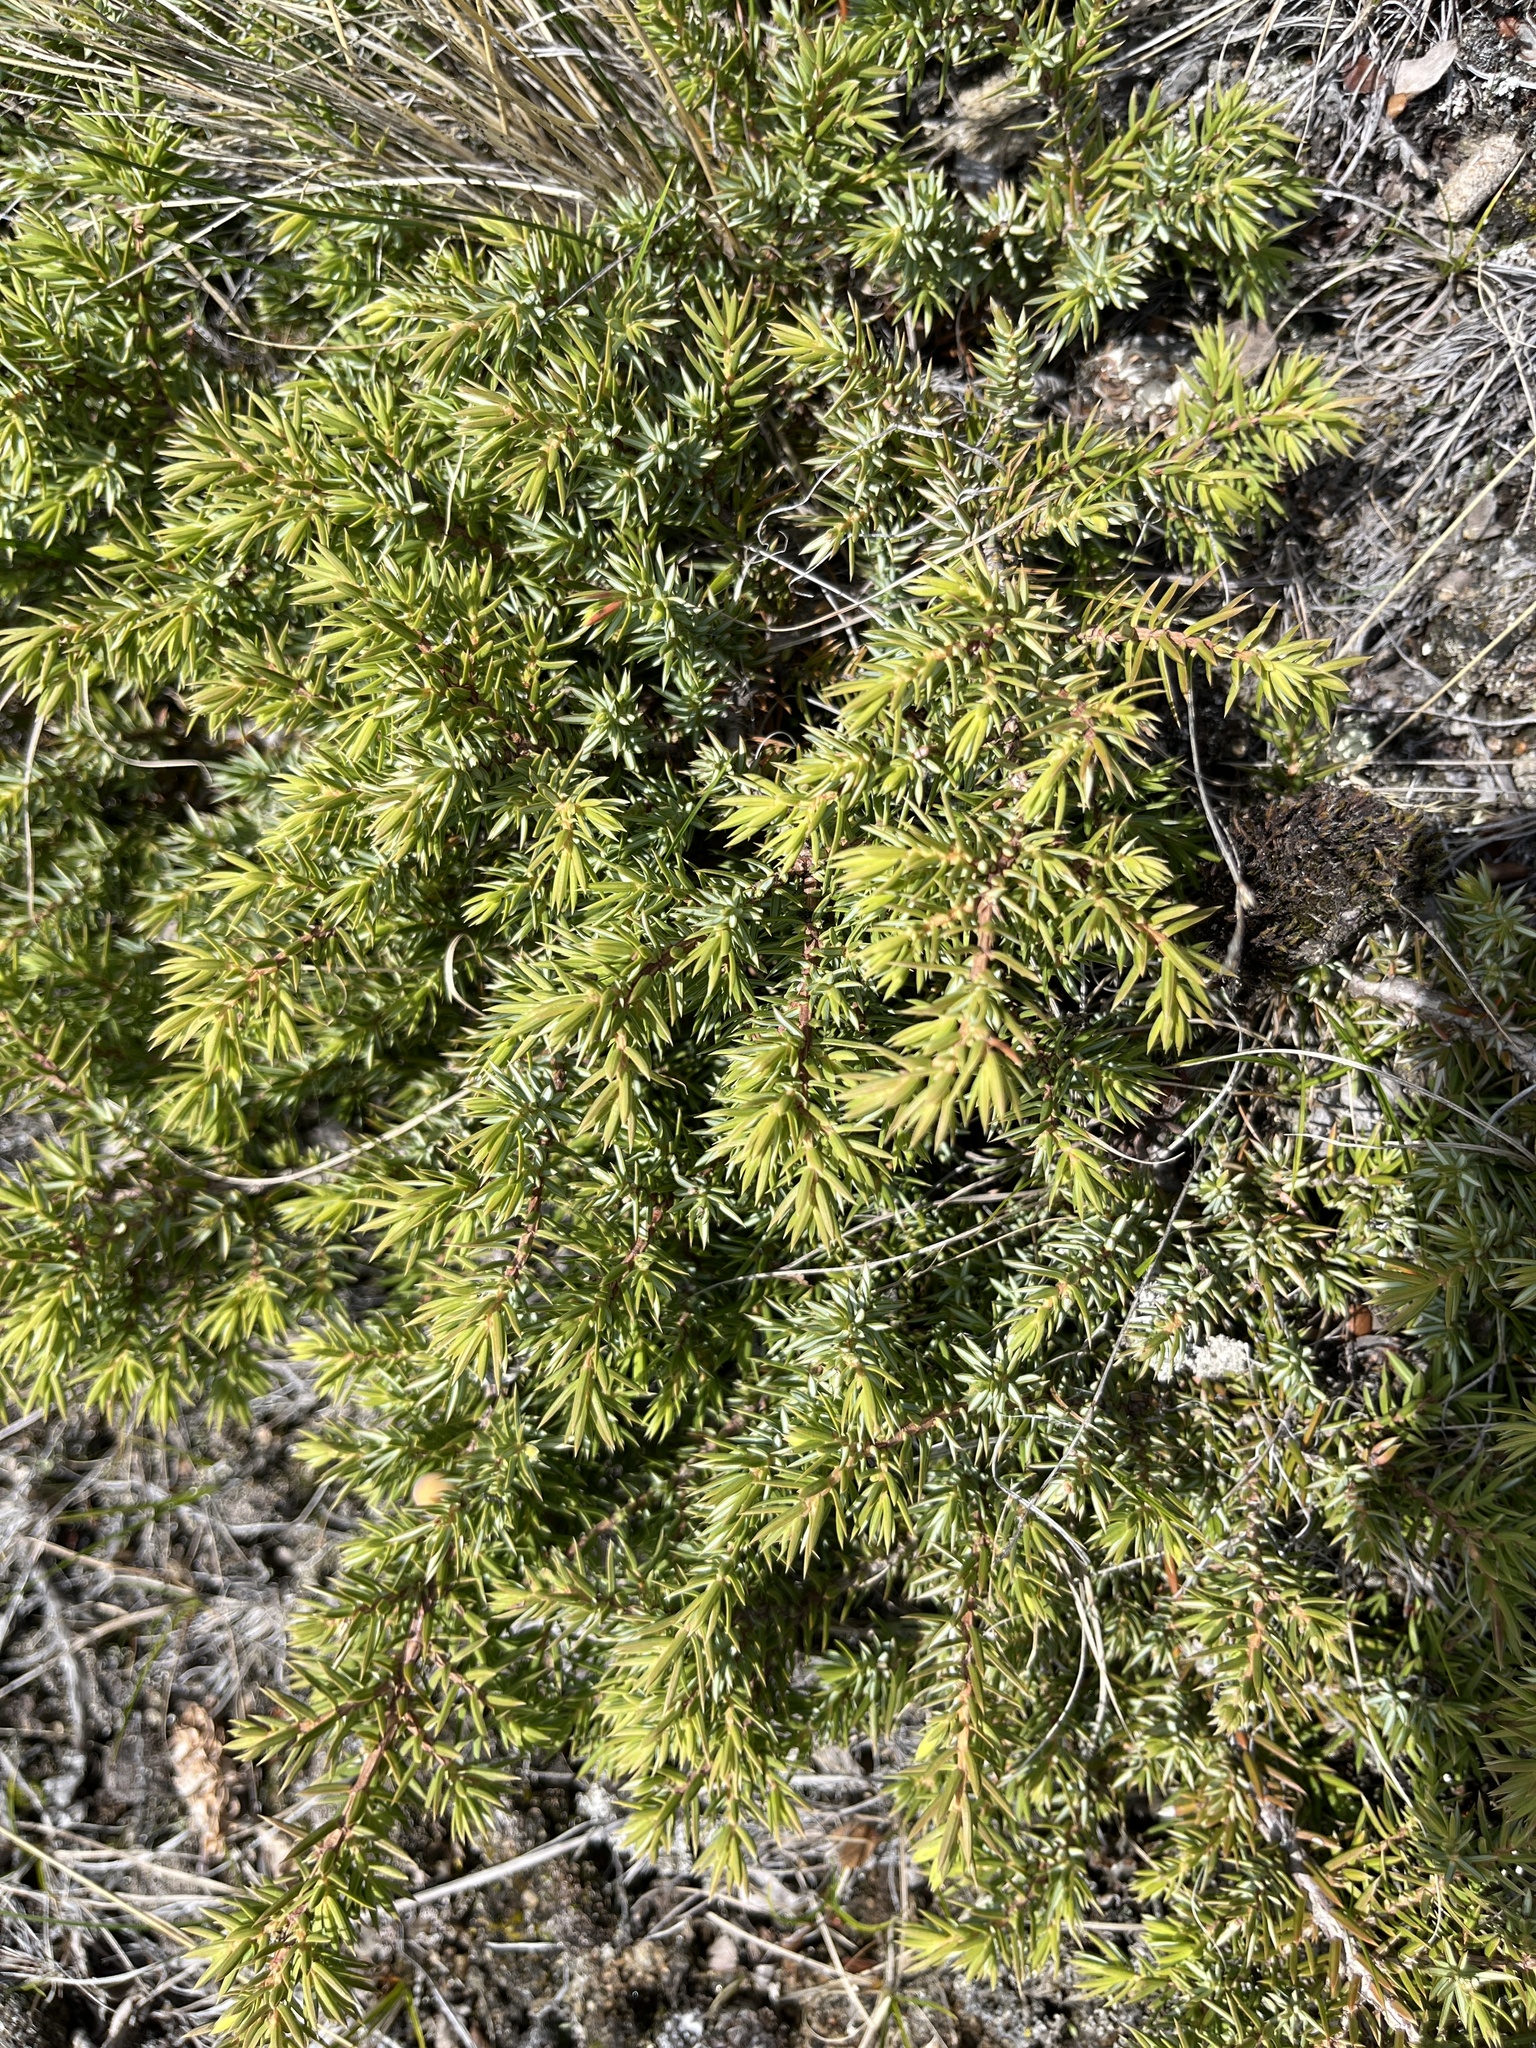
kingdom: Plantae
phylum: Tracheophyta
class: Pinopsida
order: Pinales
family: Cupressaceae
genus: Juniperus
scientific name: Juniperus communis
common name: Common juniper
